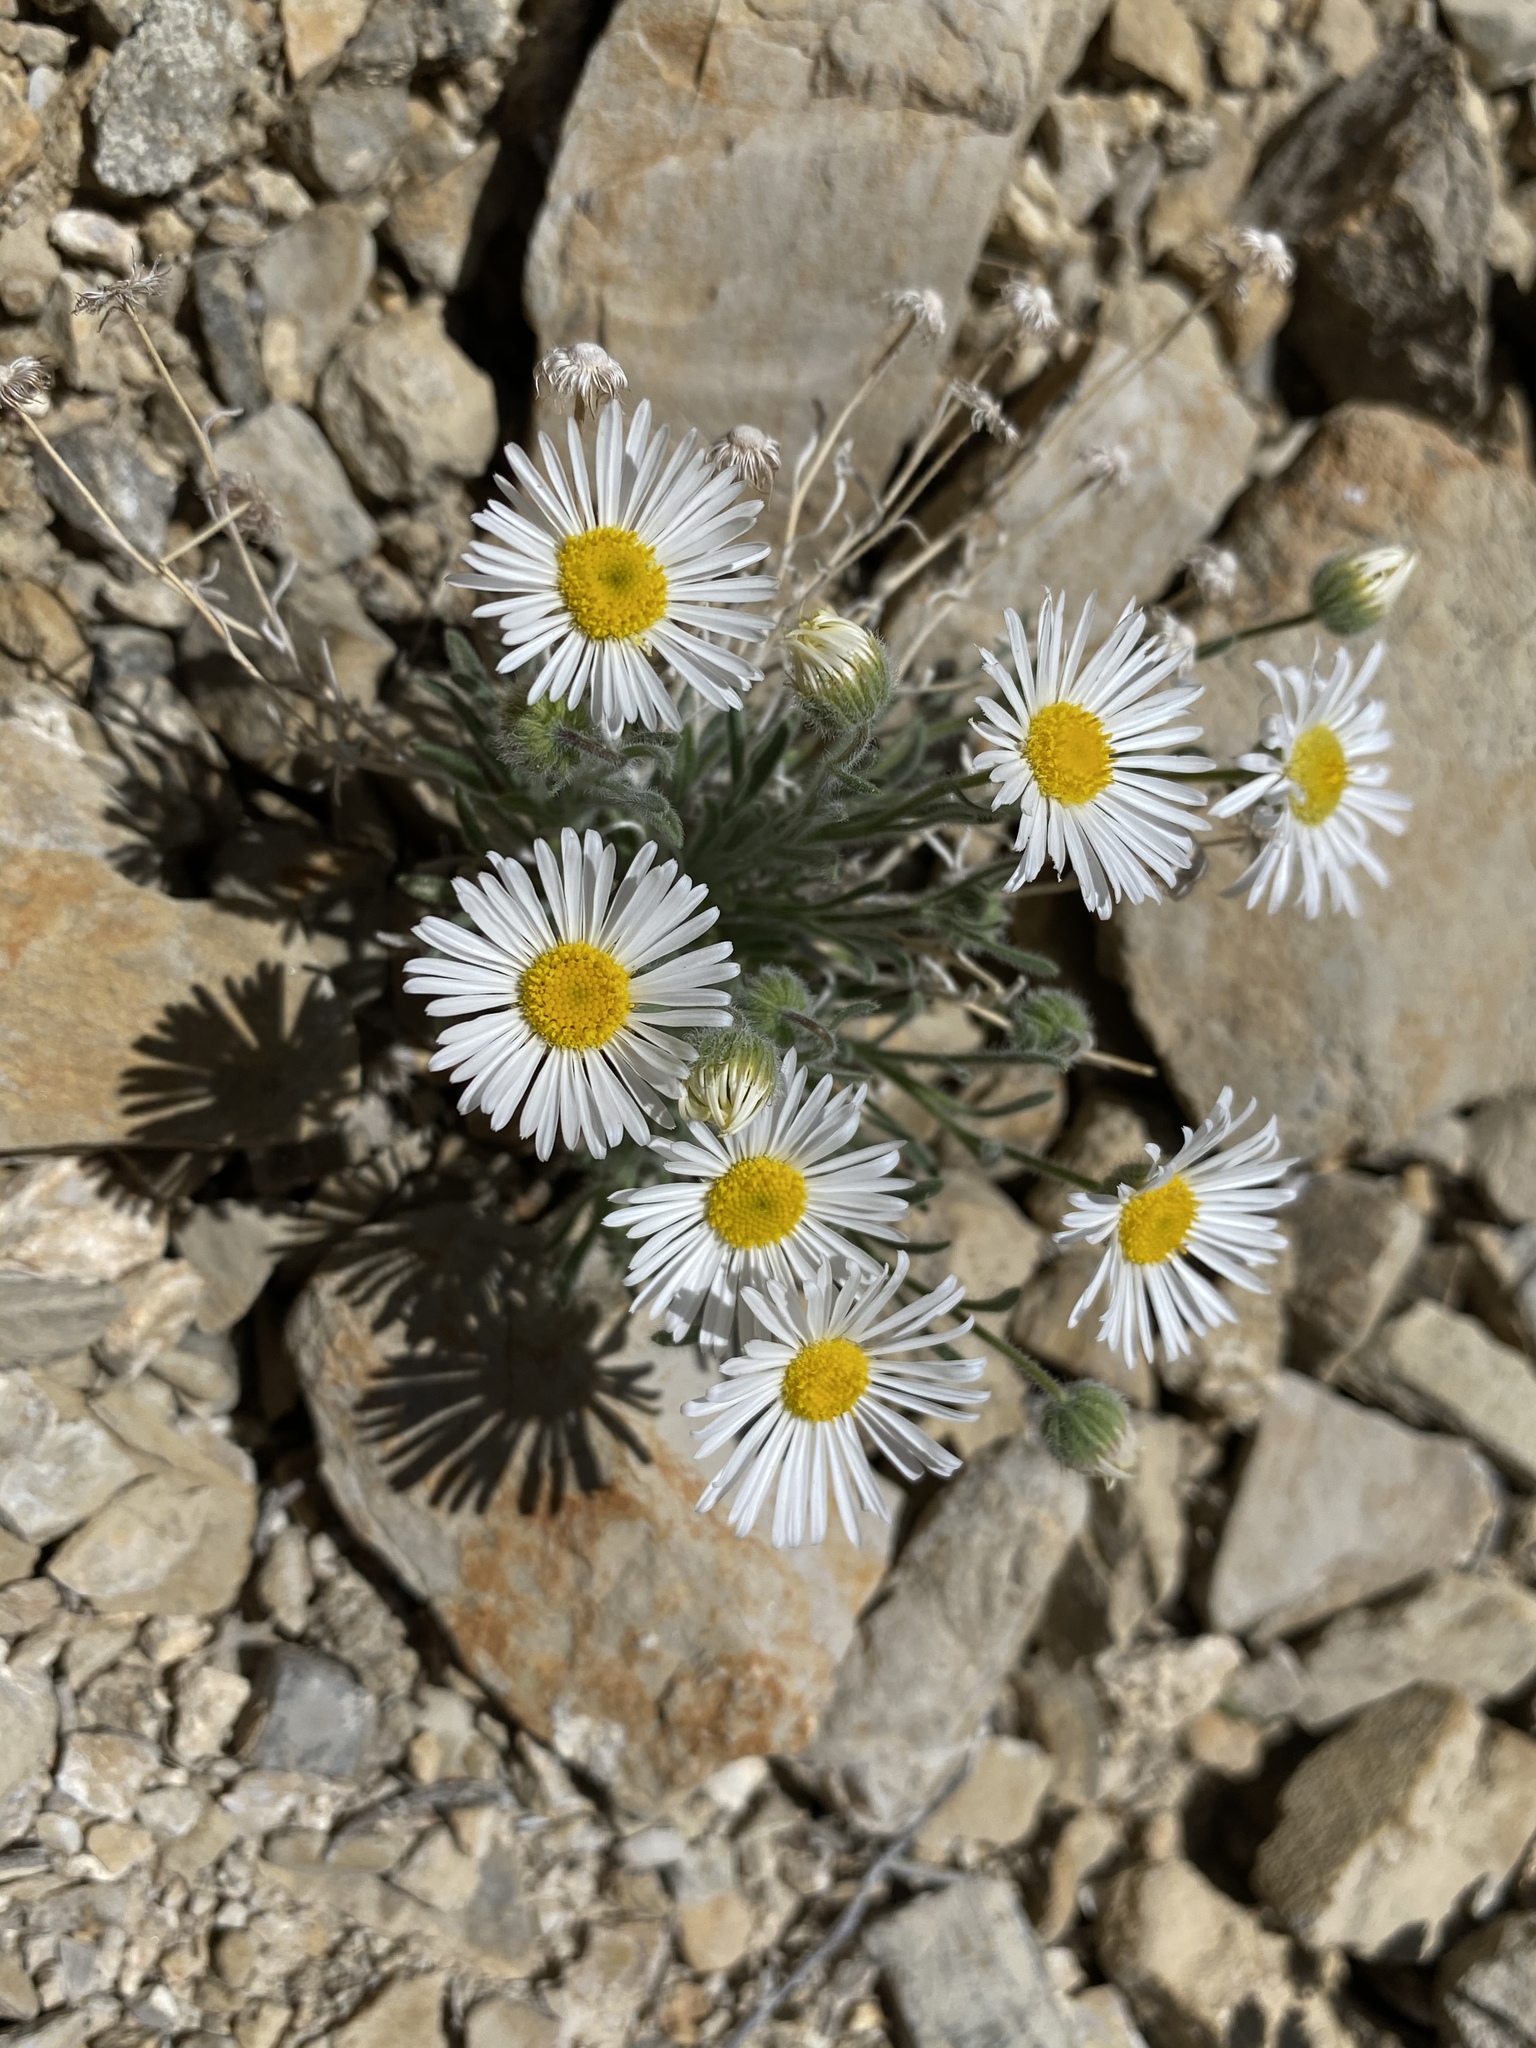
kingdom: Plantae
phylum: Tracheophyta
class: Magnoliopsida
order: Asterales
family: Asteraceae
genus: Erigeron
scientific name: Erigeron concinnus
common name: Navajo fleabane
